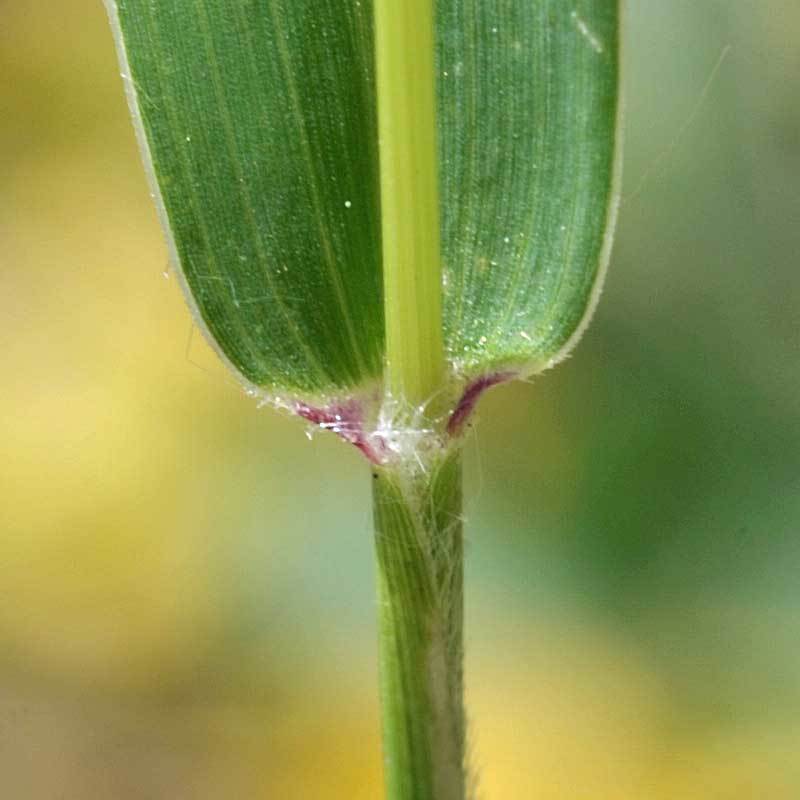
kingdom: Plantae
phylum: Tracheophyta
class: Liliopsida
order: Poales
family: Poaceae
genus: Setaria
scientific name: Setaria viridis
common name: Green bristlegrass
